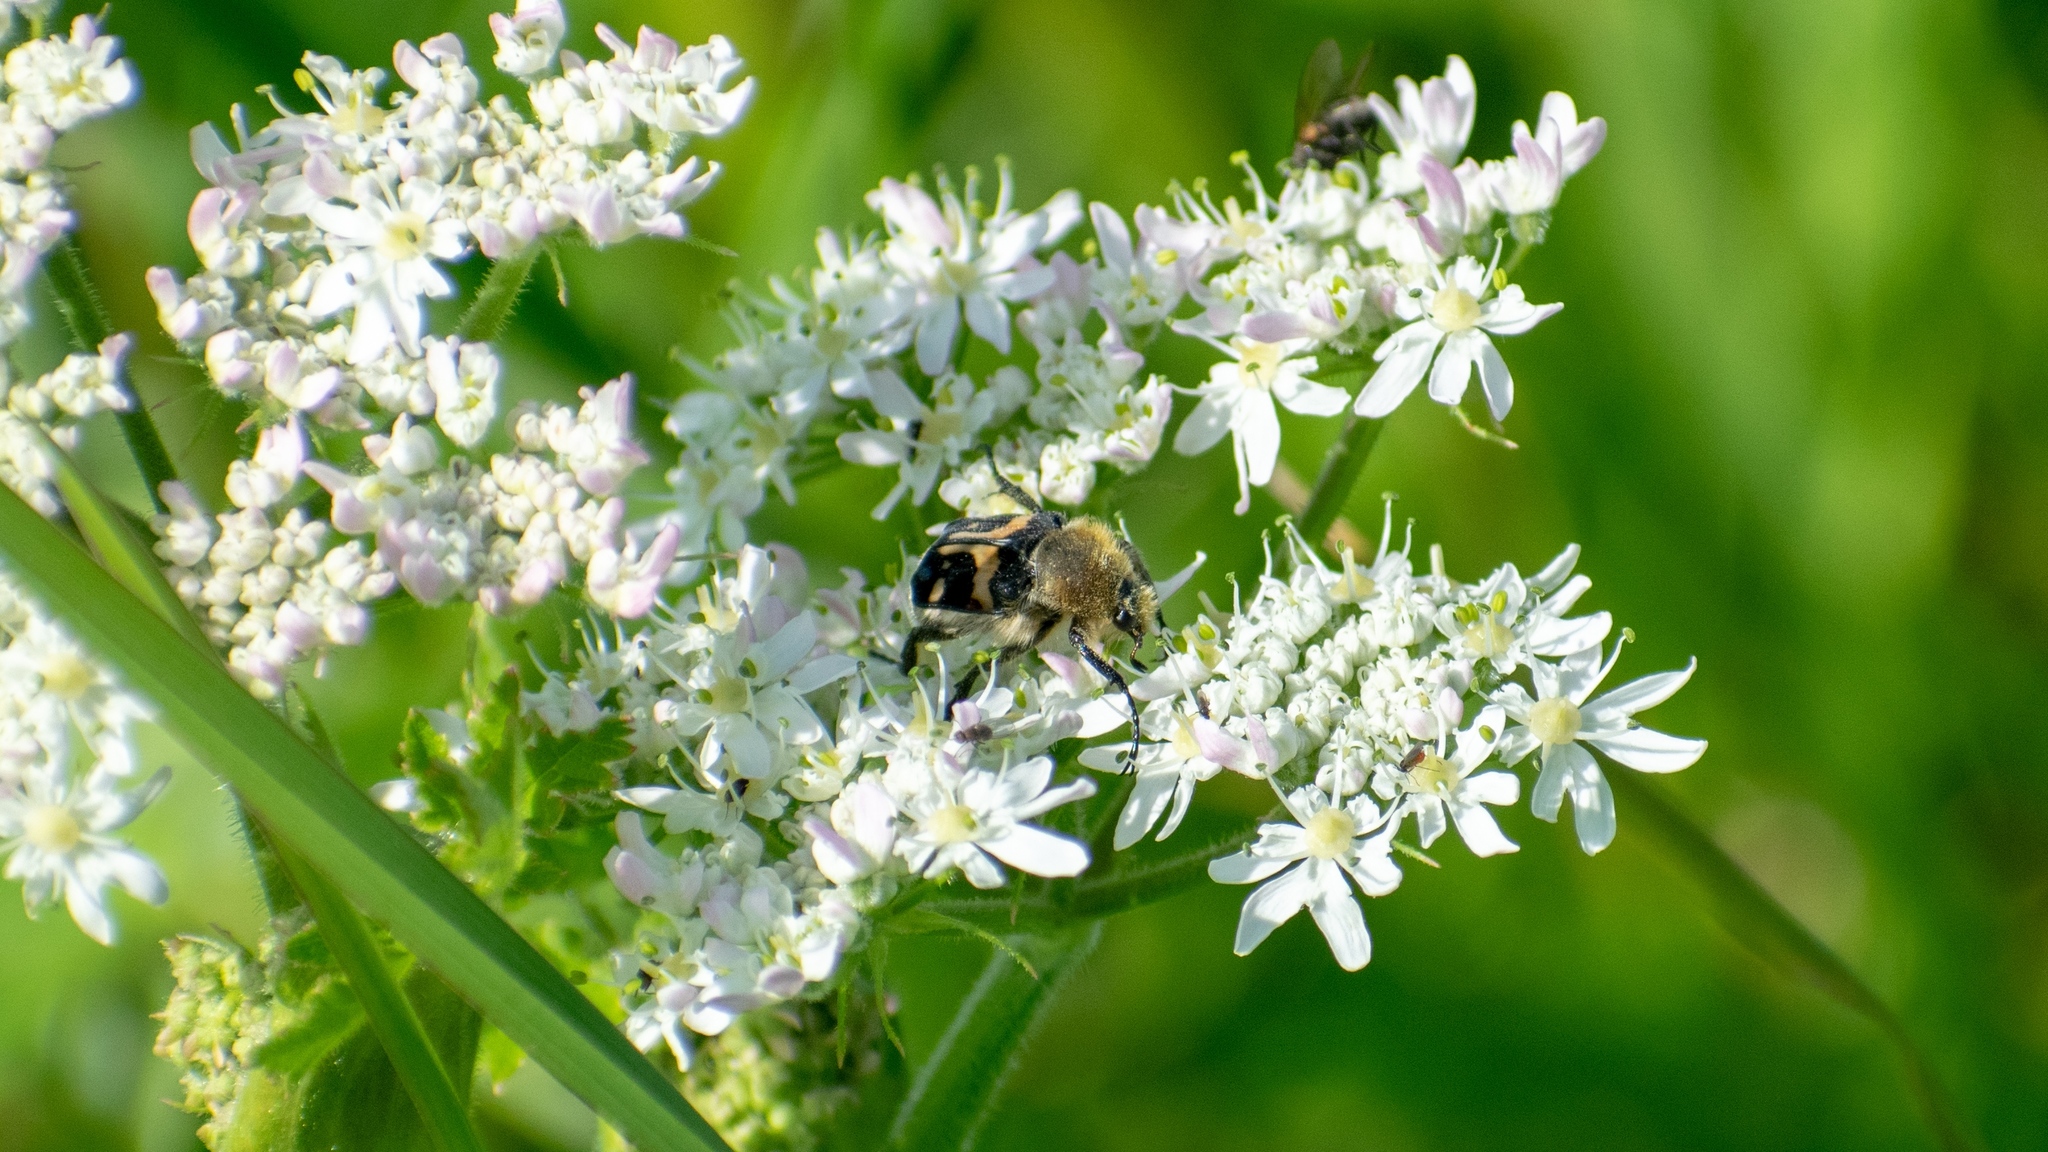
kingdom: Animalia
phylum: Arthropoda
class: Insecta
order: Coleoptera
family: Scarabaeidae
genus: Trichius
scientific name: Trichius fasciatus
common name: Bee beetle
